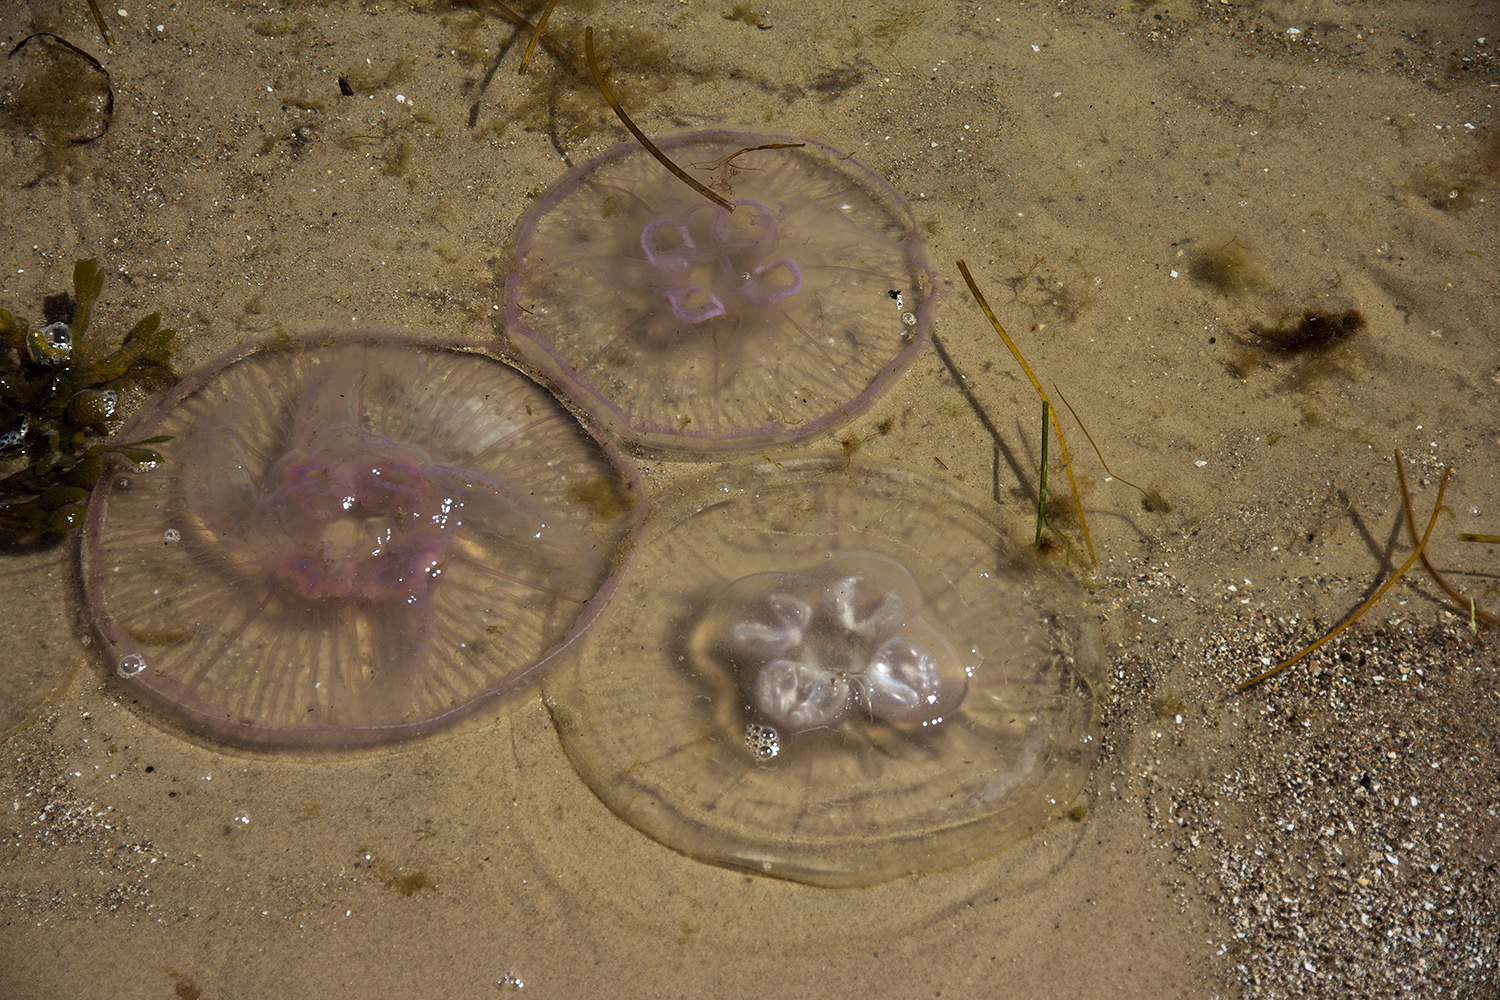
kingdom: Animalia
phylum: Cnidaria
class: Scyphozoa
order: Semaeostomeae
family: Ulmaridae
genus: Aurelia
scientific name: Aurelia aurita
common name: Moon jellyfish
